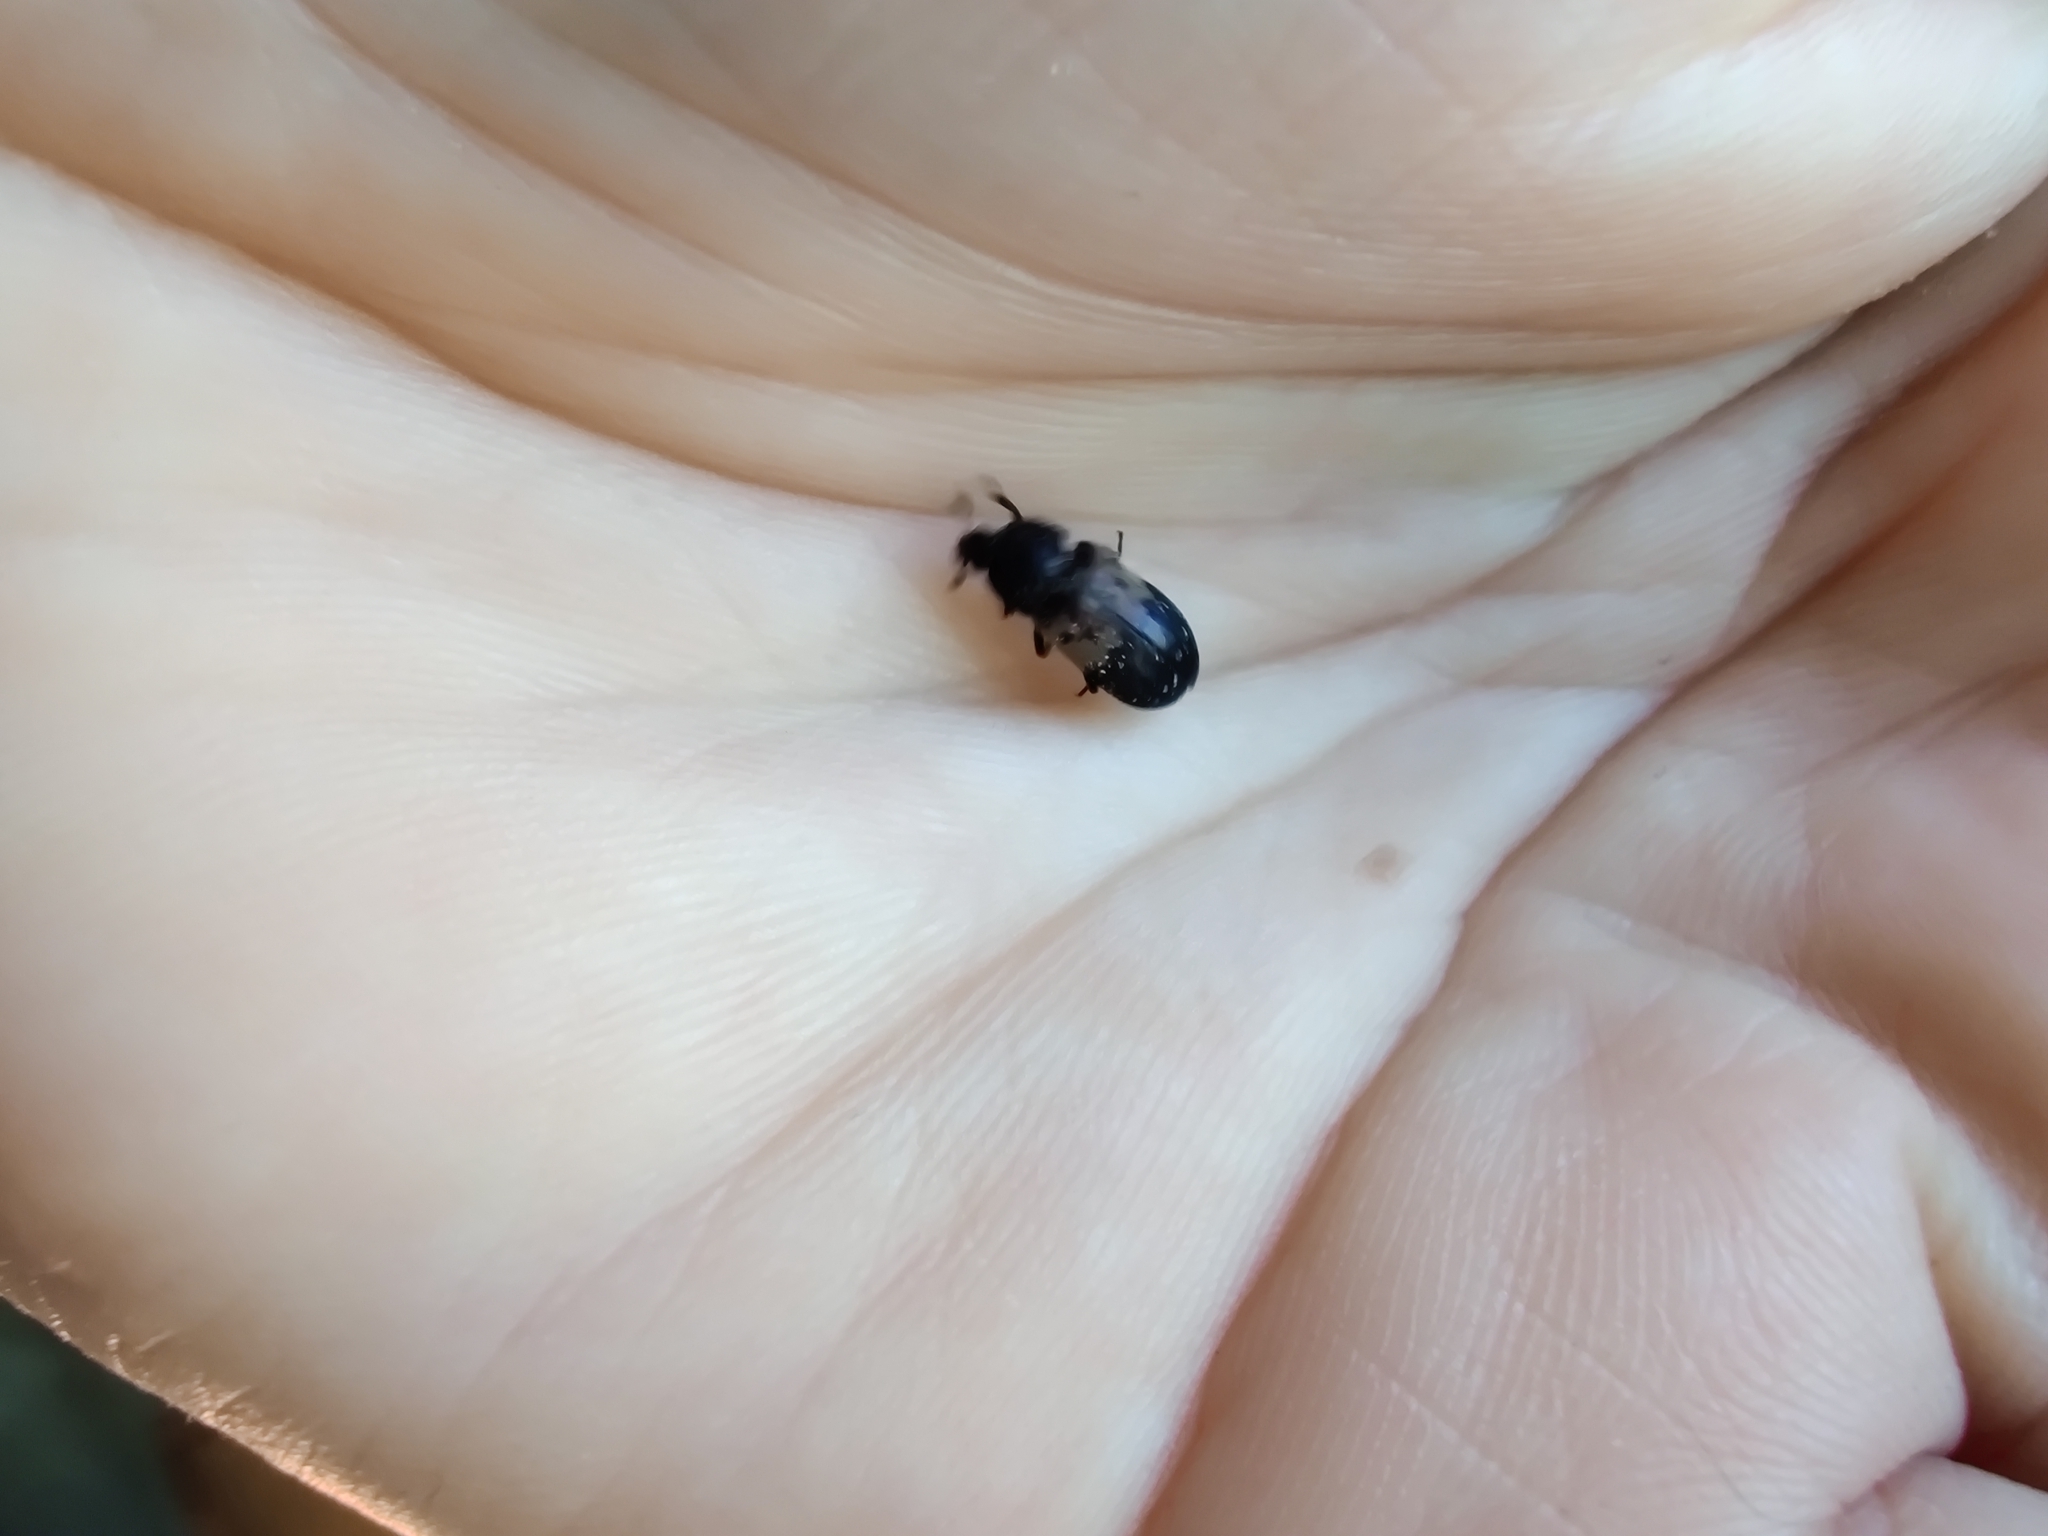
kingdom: Animalia
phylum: Arthropoda
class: Insecta
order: Coleoptera
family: Dermestidae
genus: Dermestes
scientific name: Dermestes lardarius
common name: Larder beetle
